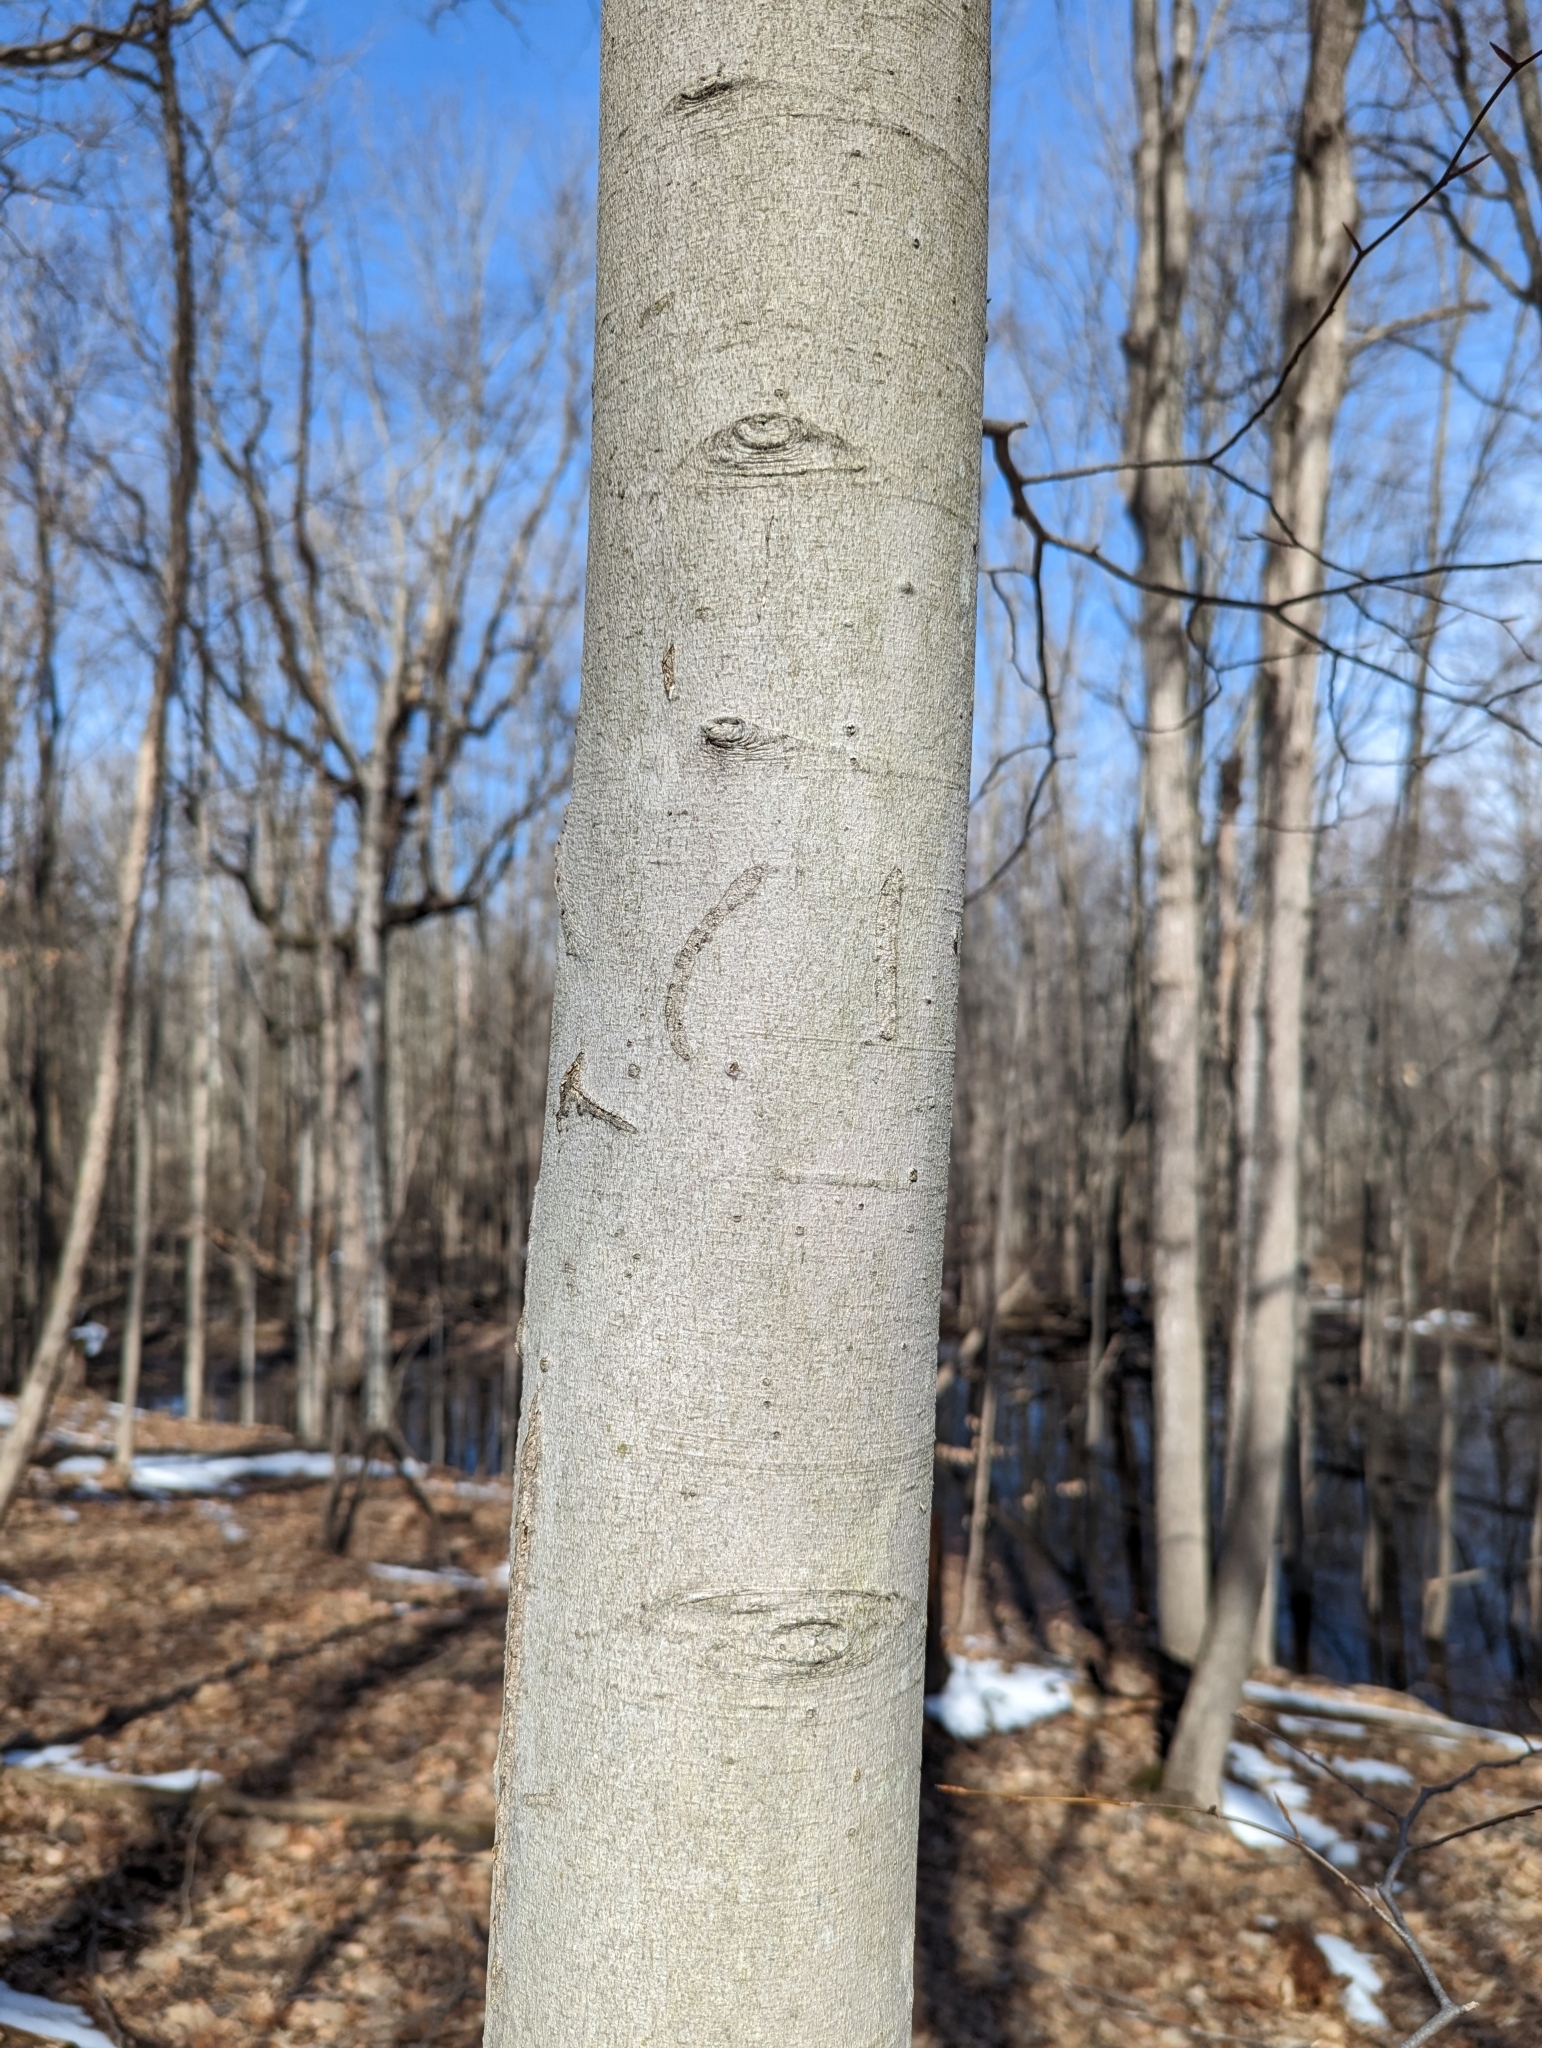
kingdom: Plantae
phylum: Tracheophyta
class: Magnoliopsida
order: Fagales
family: Fagaceae
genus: Fagus
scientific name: Fagus grandifolia
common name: American beech
